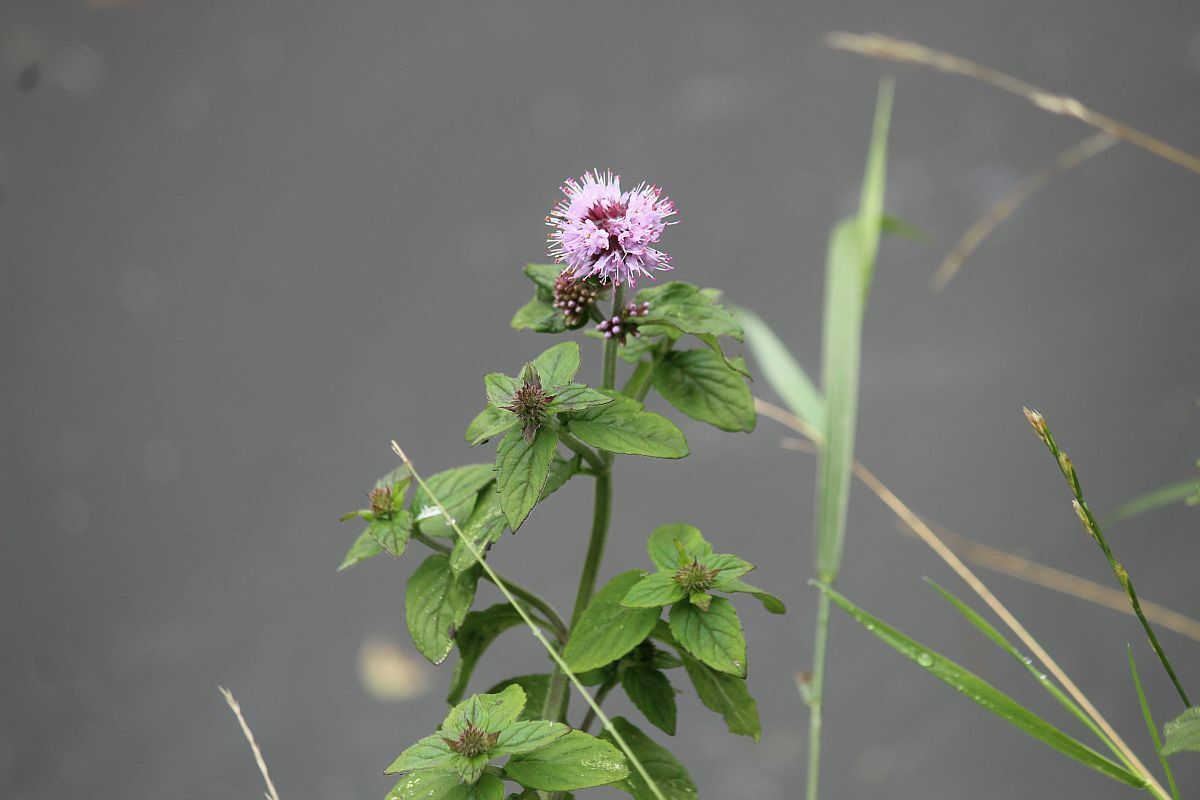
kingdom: Plantae
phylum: Tracheophyta
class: Magnoliopsida
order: Lamiales
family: Lamiaceae
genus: Mentha
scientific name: Mentha aquatica
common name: Water mint
